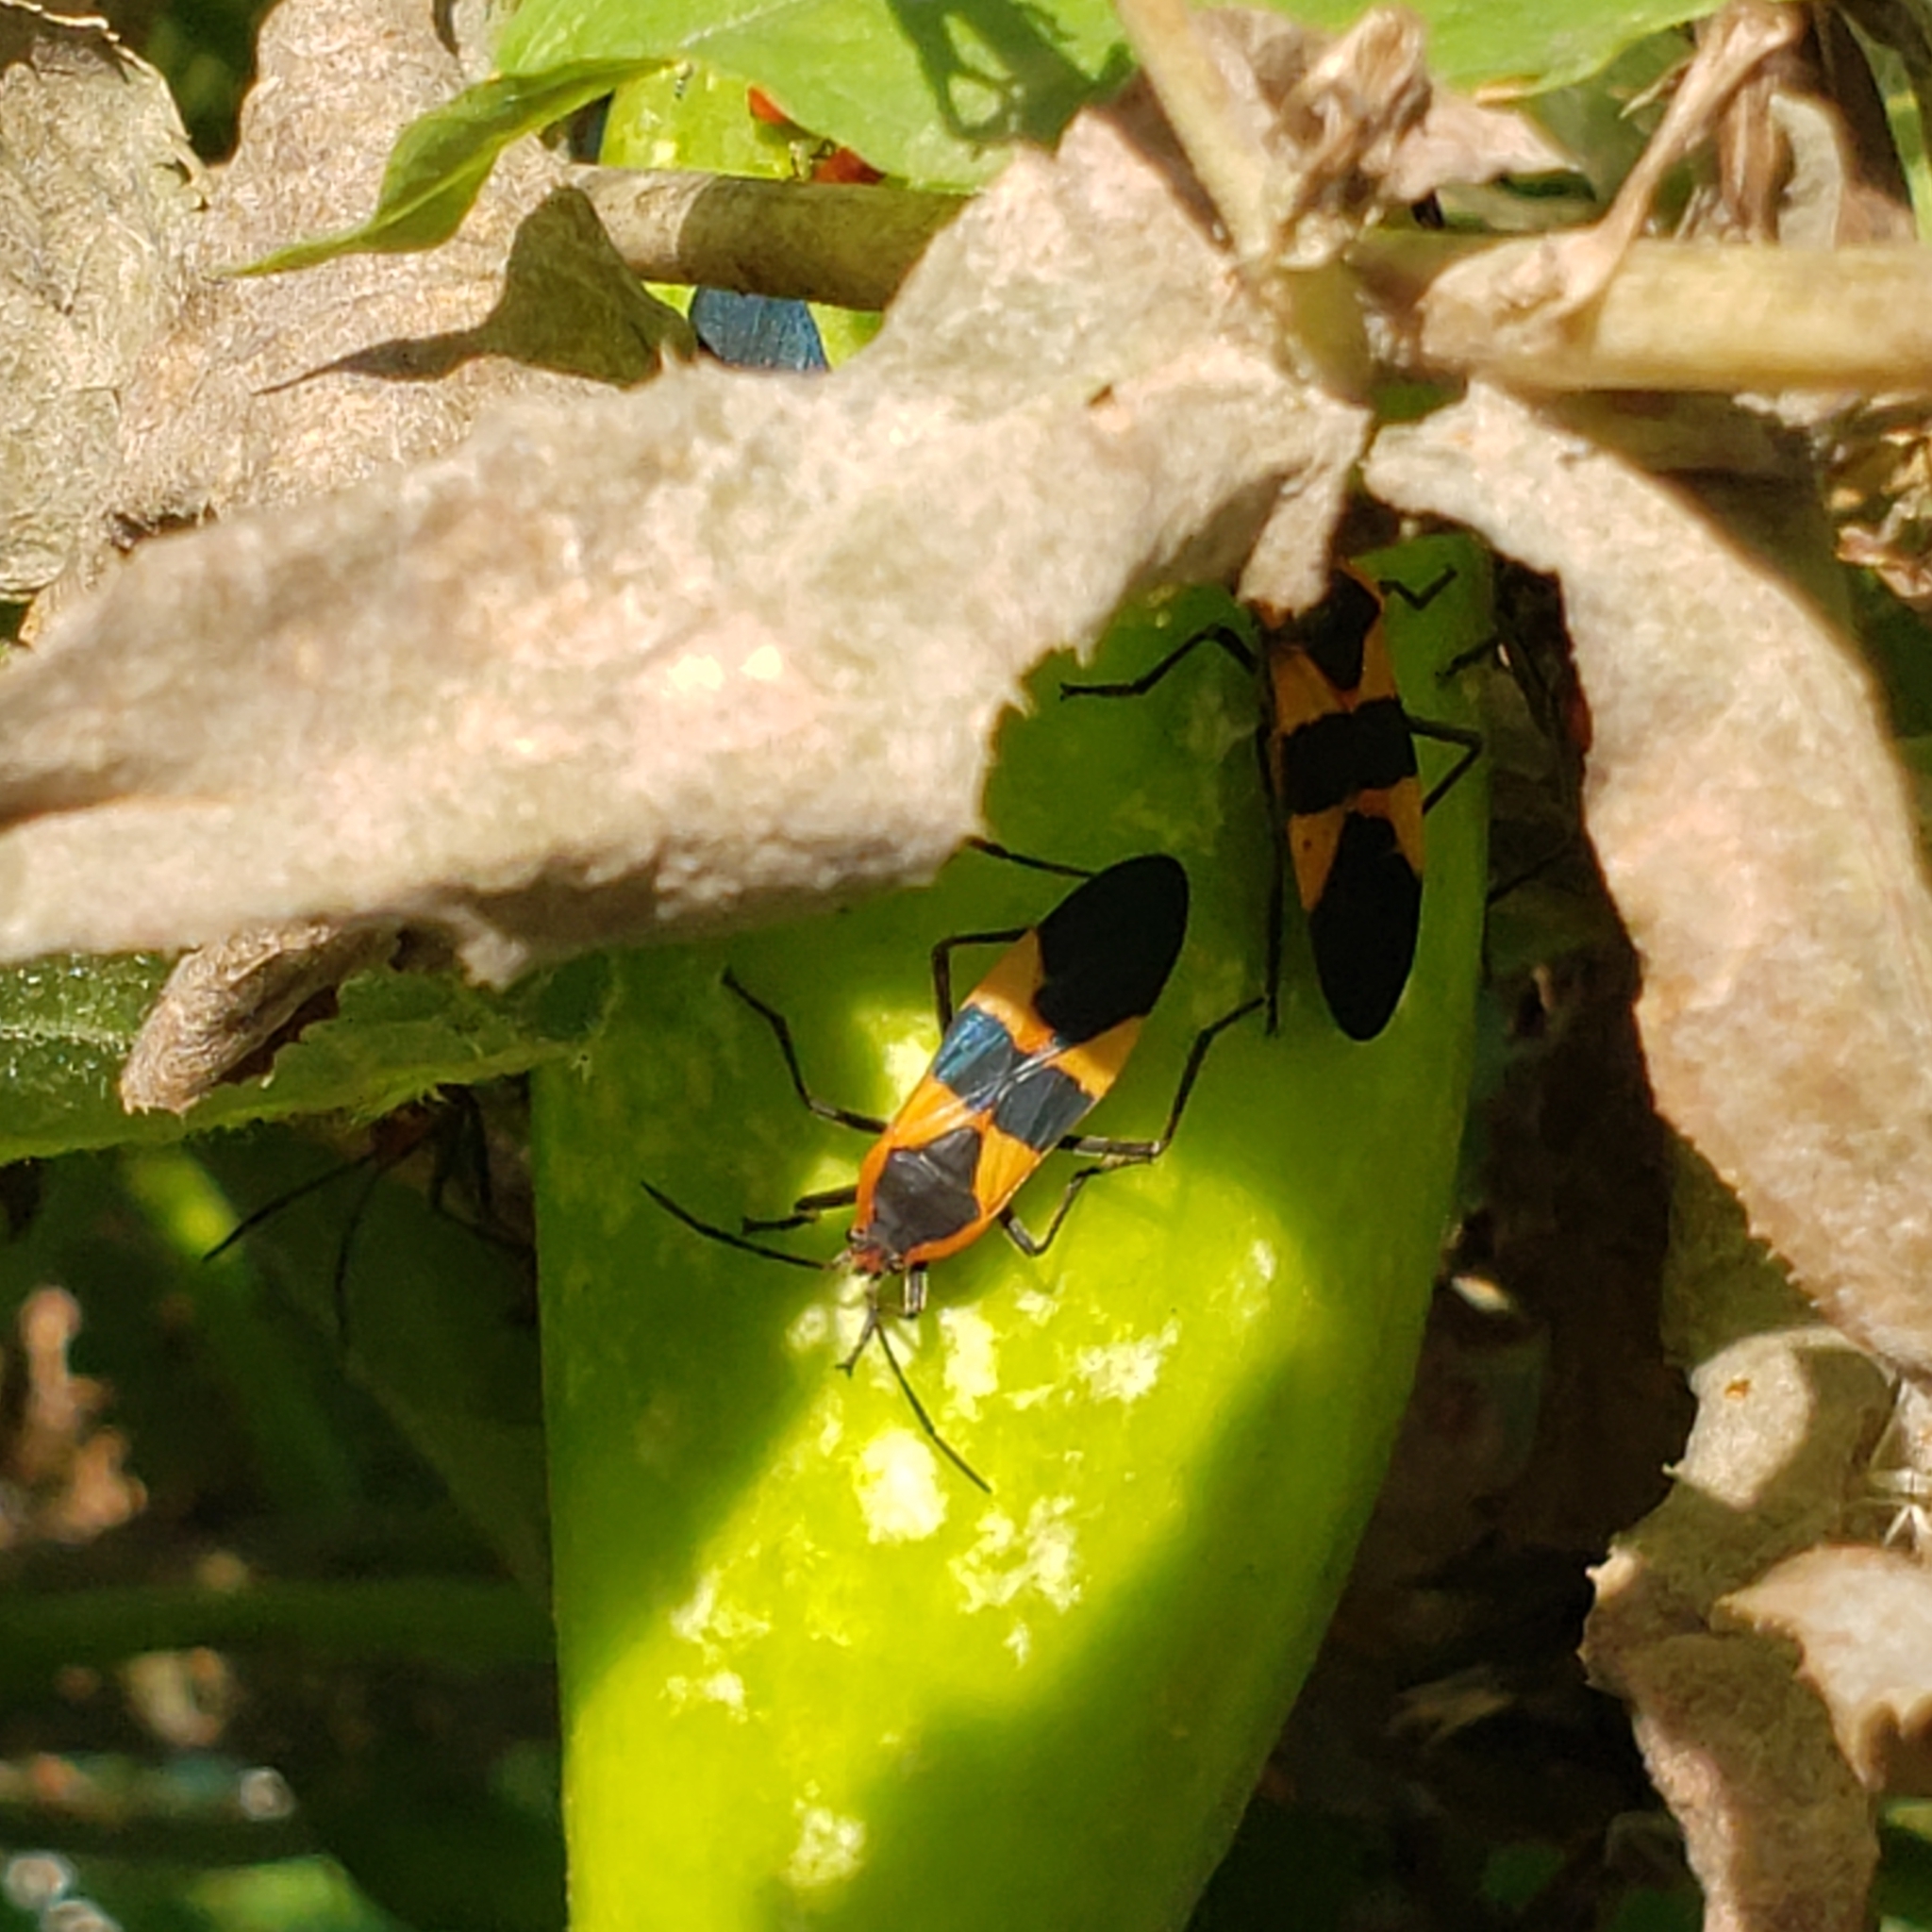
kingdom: Animalia
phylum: Arthropoda
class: Insecta
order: Hemiptera
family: Lygaeidae
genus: Oncopeltus
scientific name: Oncopeltus fasciatus
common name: Large milkweed bug
